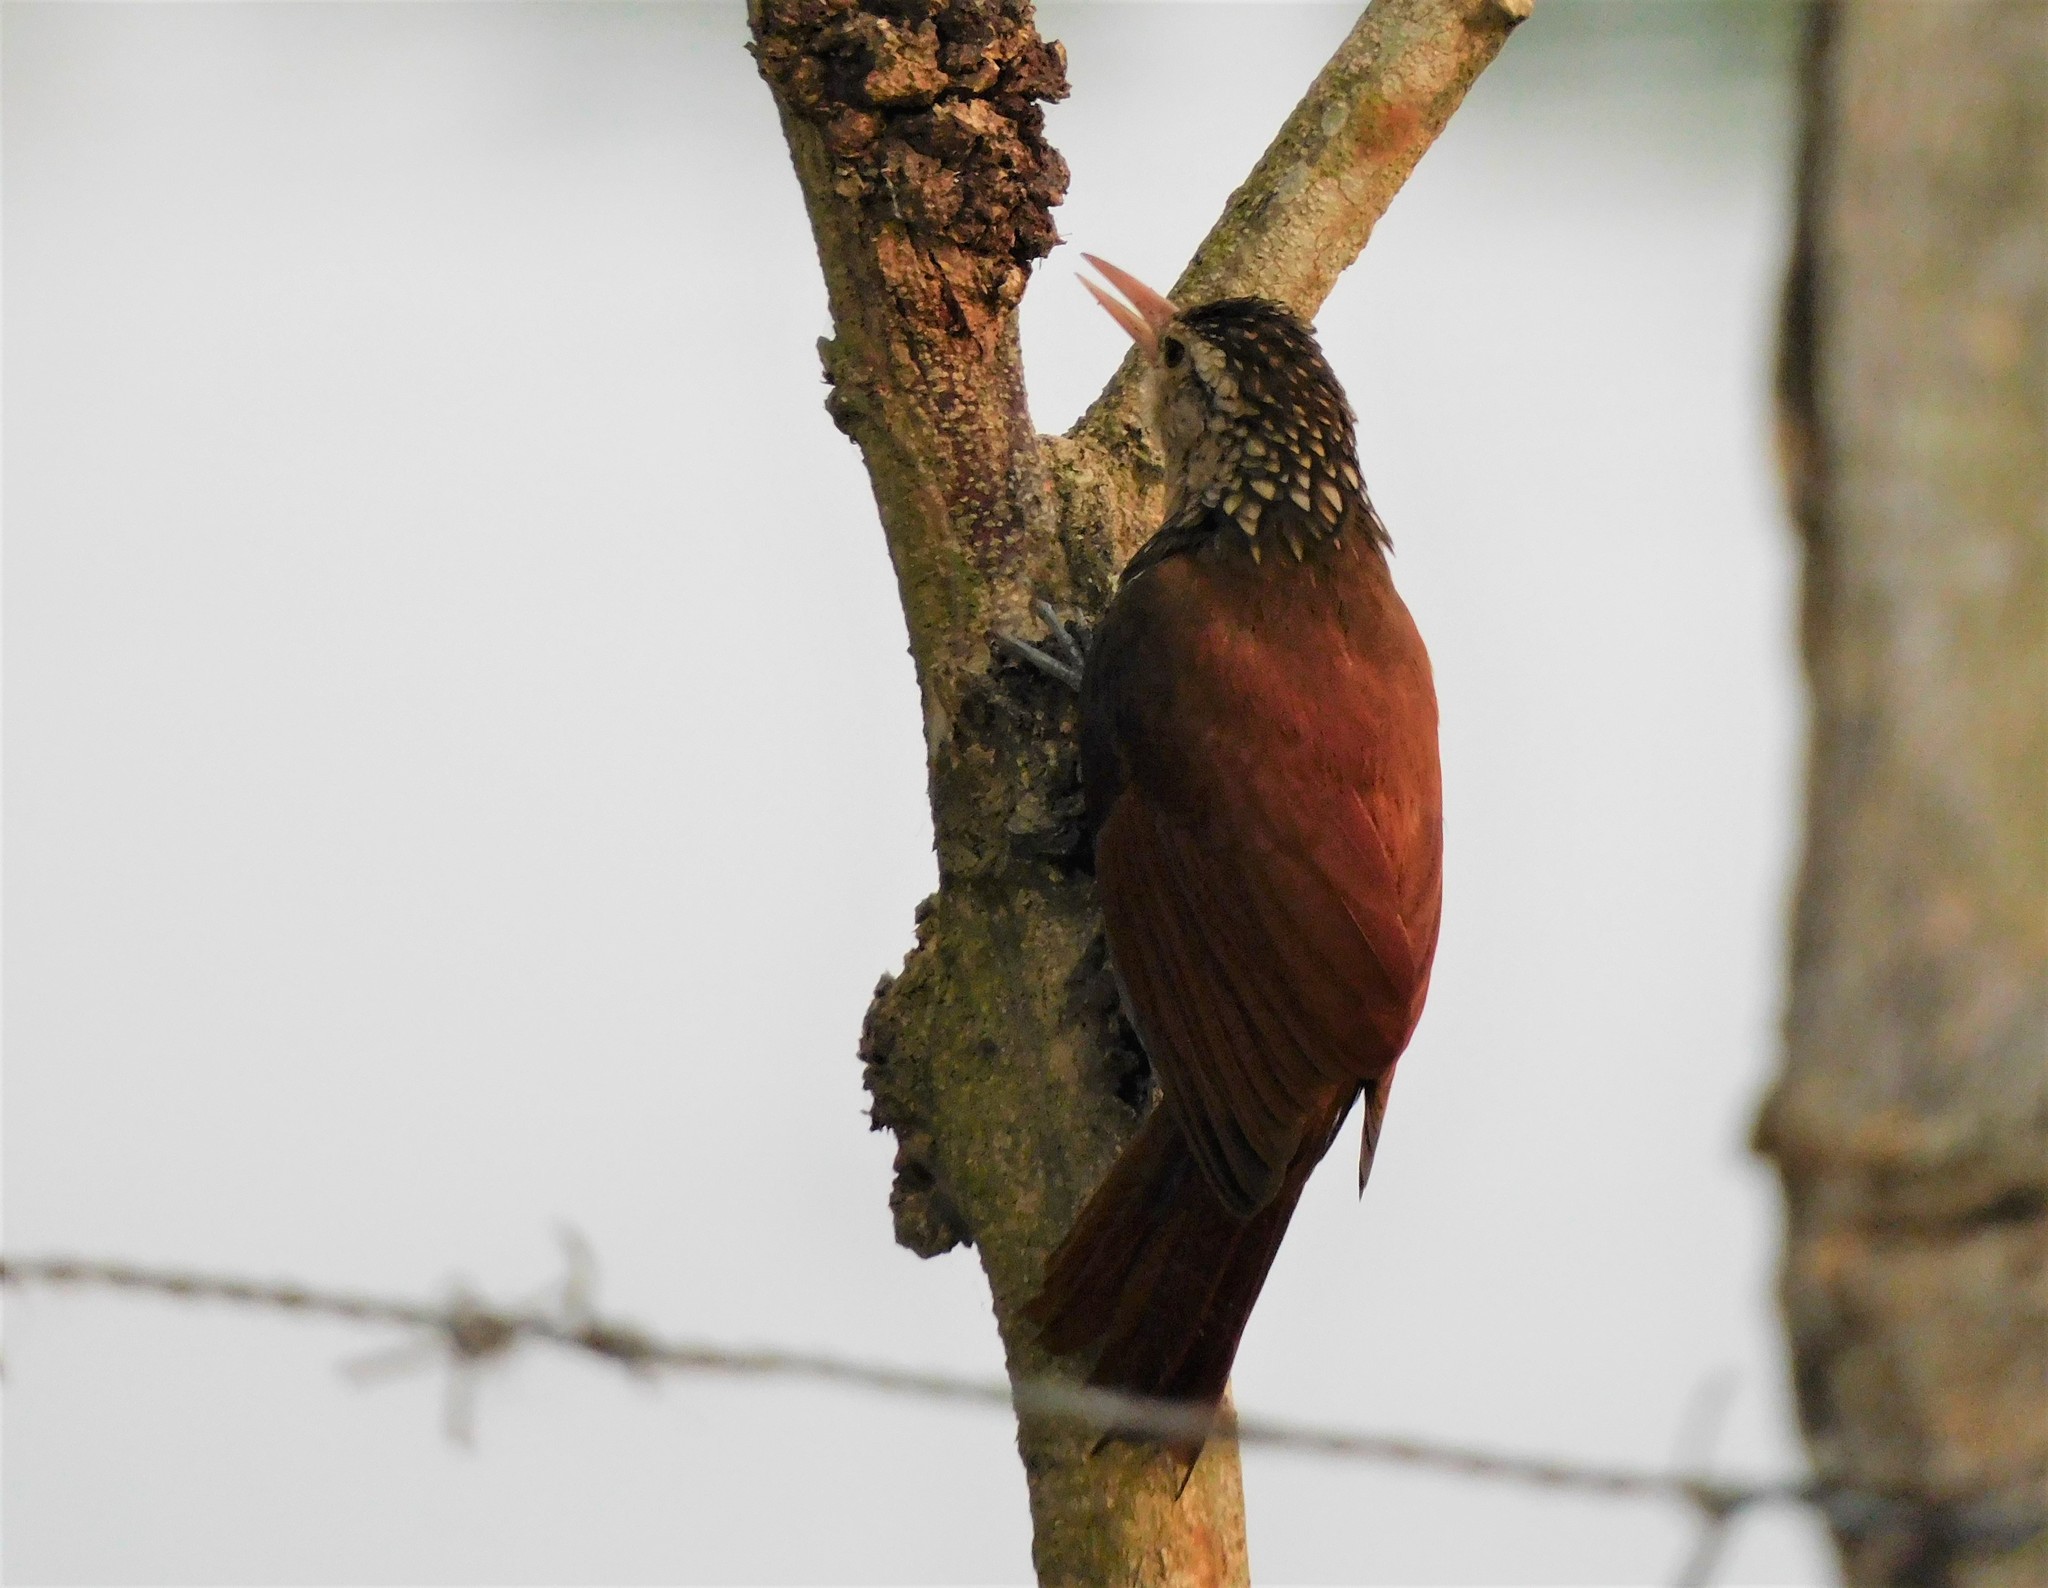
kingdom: Animalia
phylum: Chordata
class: Aves
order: Passeriformes
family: Furnariidae
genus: Xiphorhynchus
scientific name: Xiphorhynchus picus
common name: Straight-billed woodcreeper
